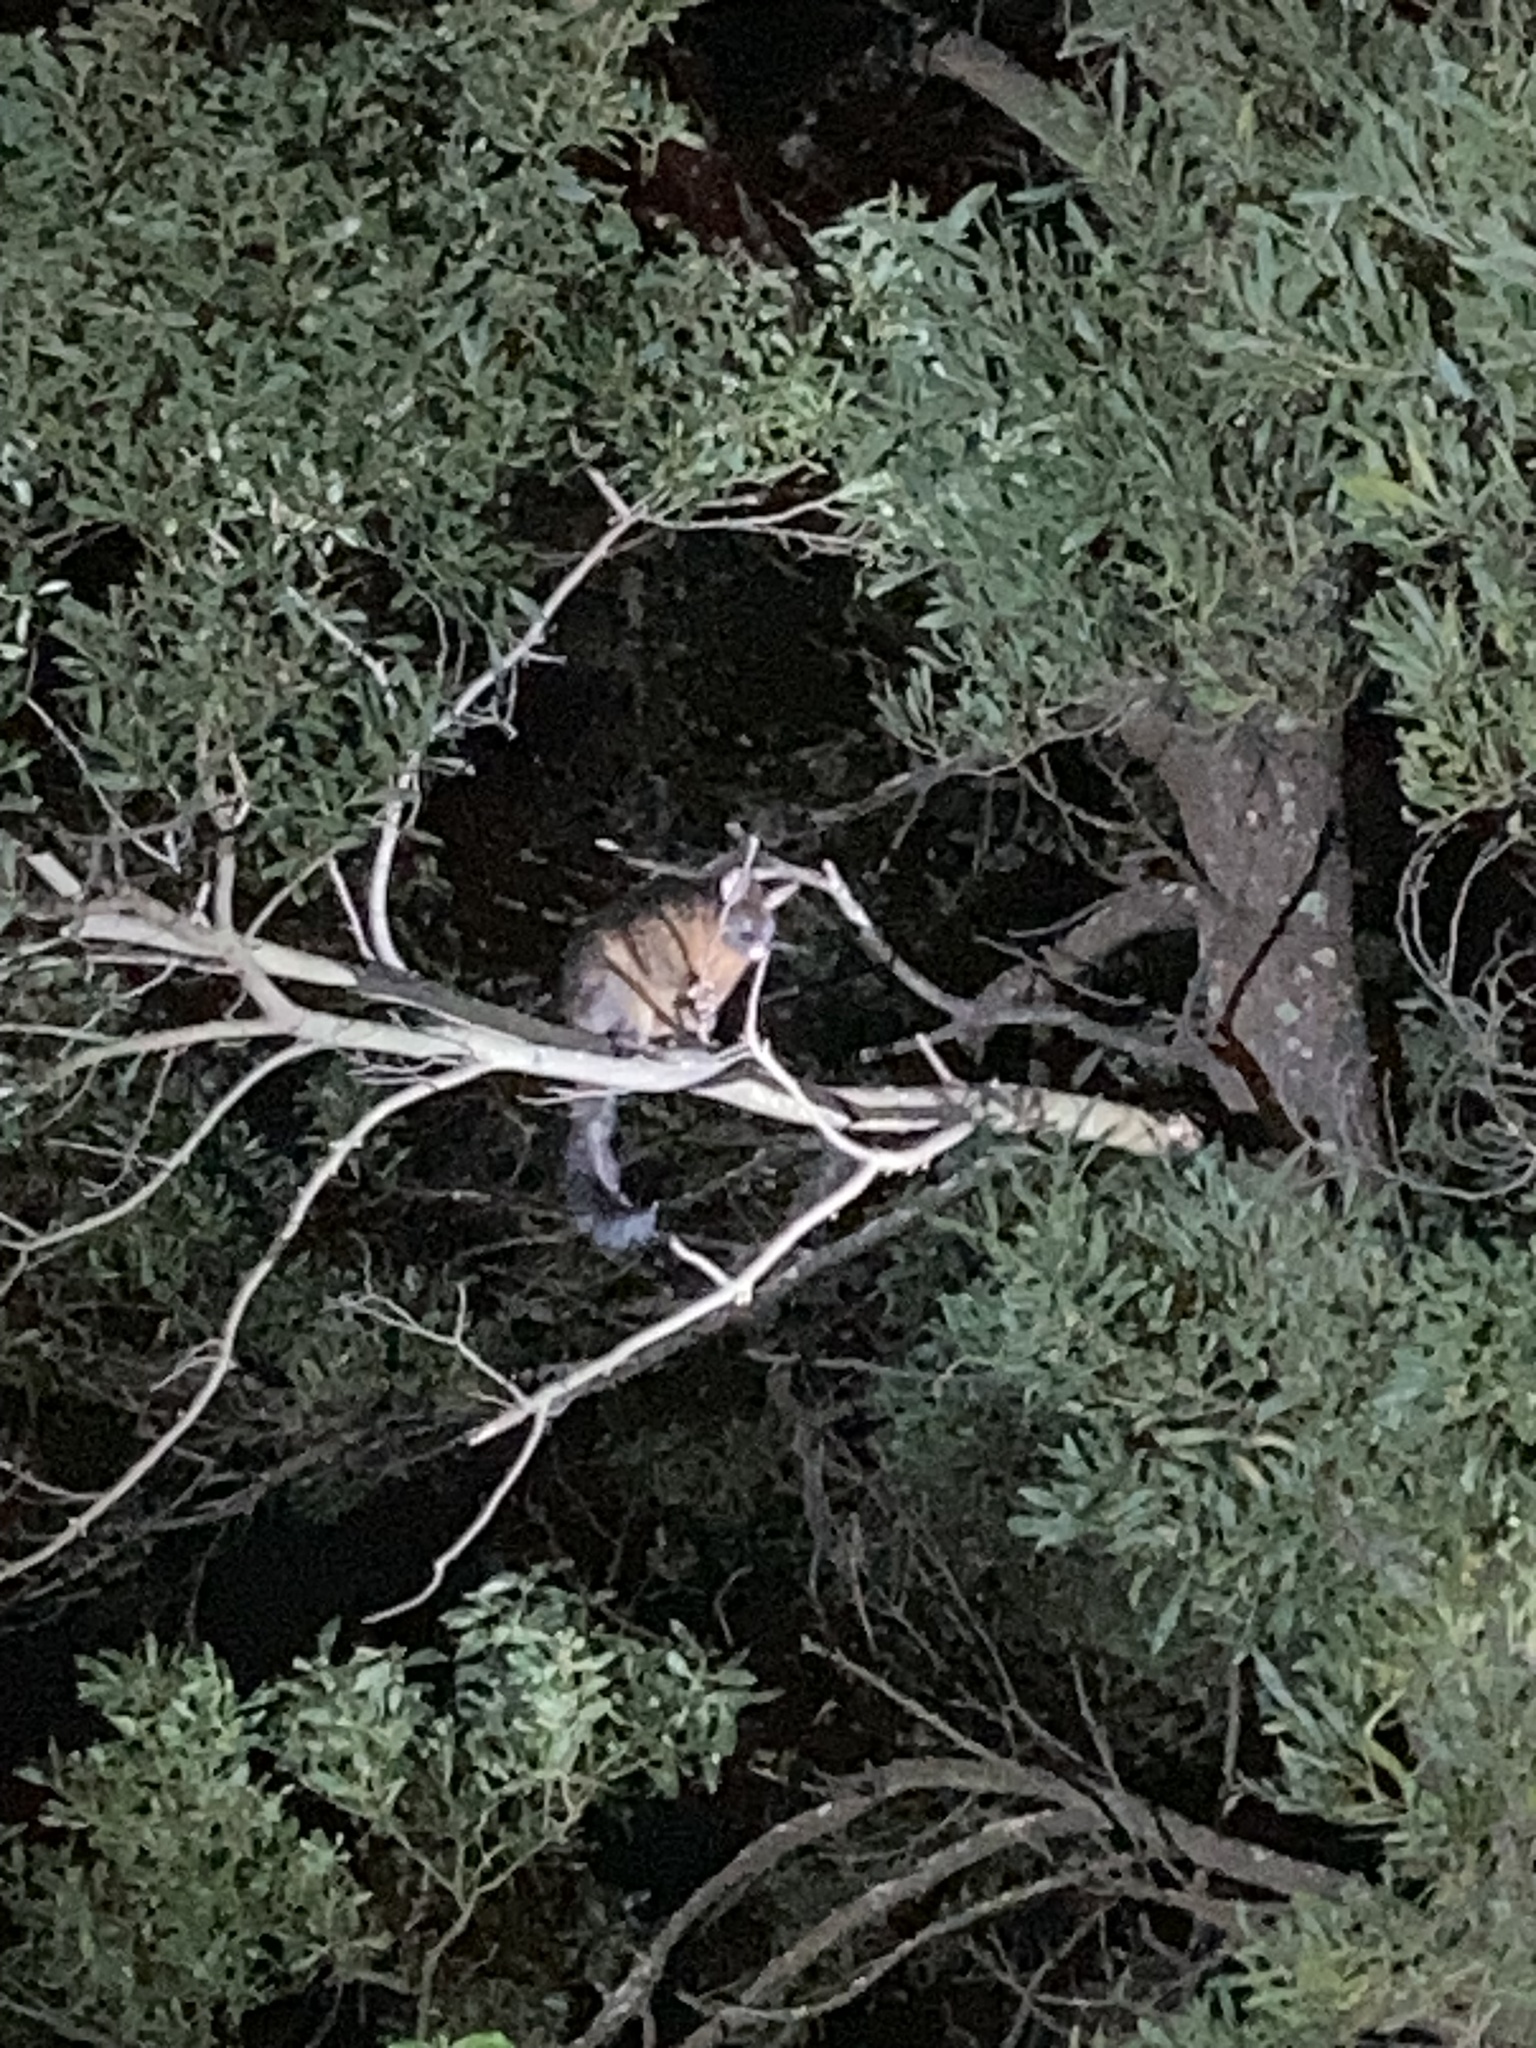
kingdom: Animalia
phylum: Chordata
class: Mammalia
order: Diprotodontia
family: Phalangeridae
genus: Trichosurus
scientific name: Trichosurus vulpecula
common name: Common brushtail
